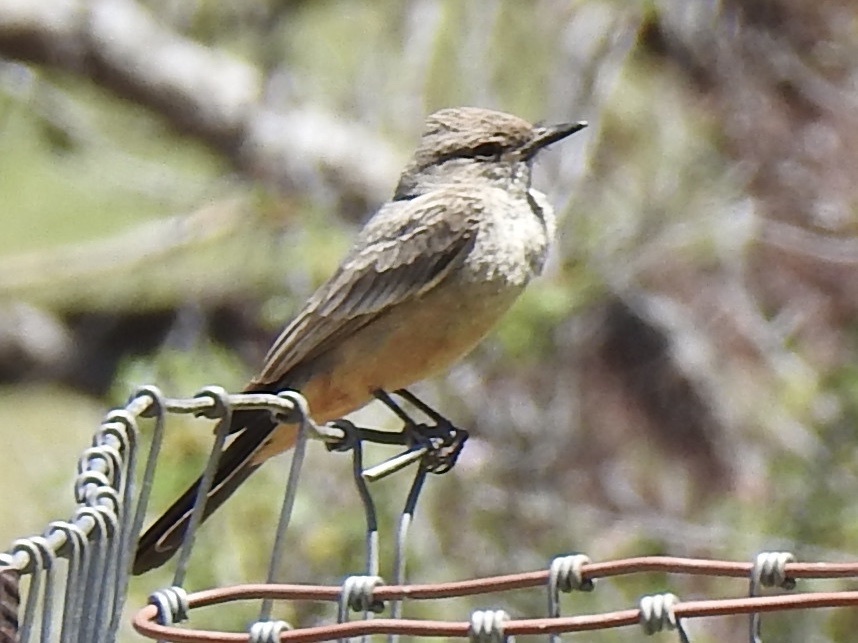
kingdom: Animalia
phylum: Chordata
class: Aves
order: Passeriformes
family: Tyrannidae
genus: Sayornis
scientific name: Sayornis saya
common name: Say's phoebe
